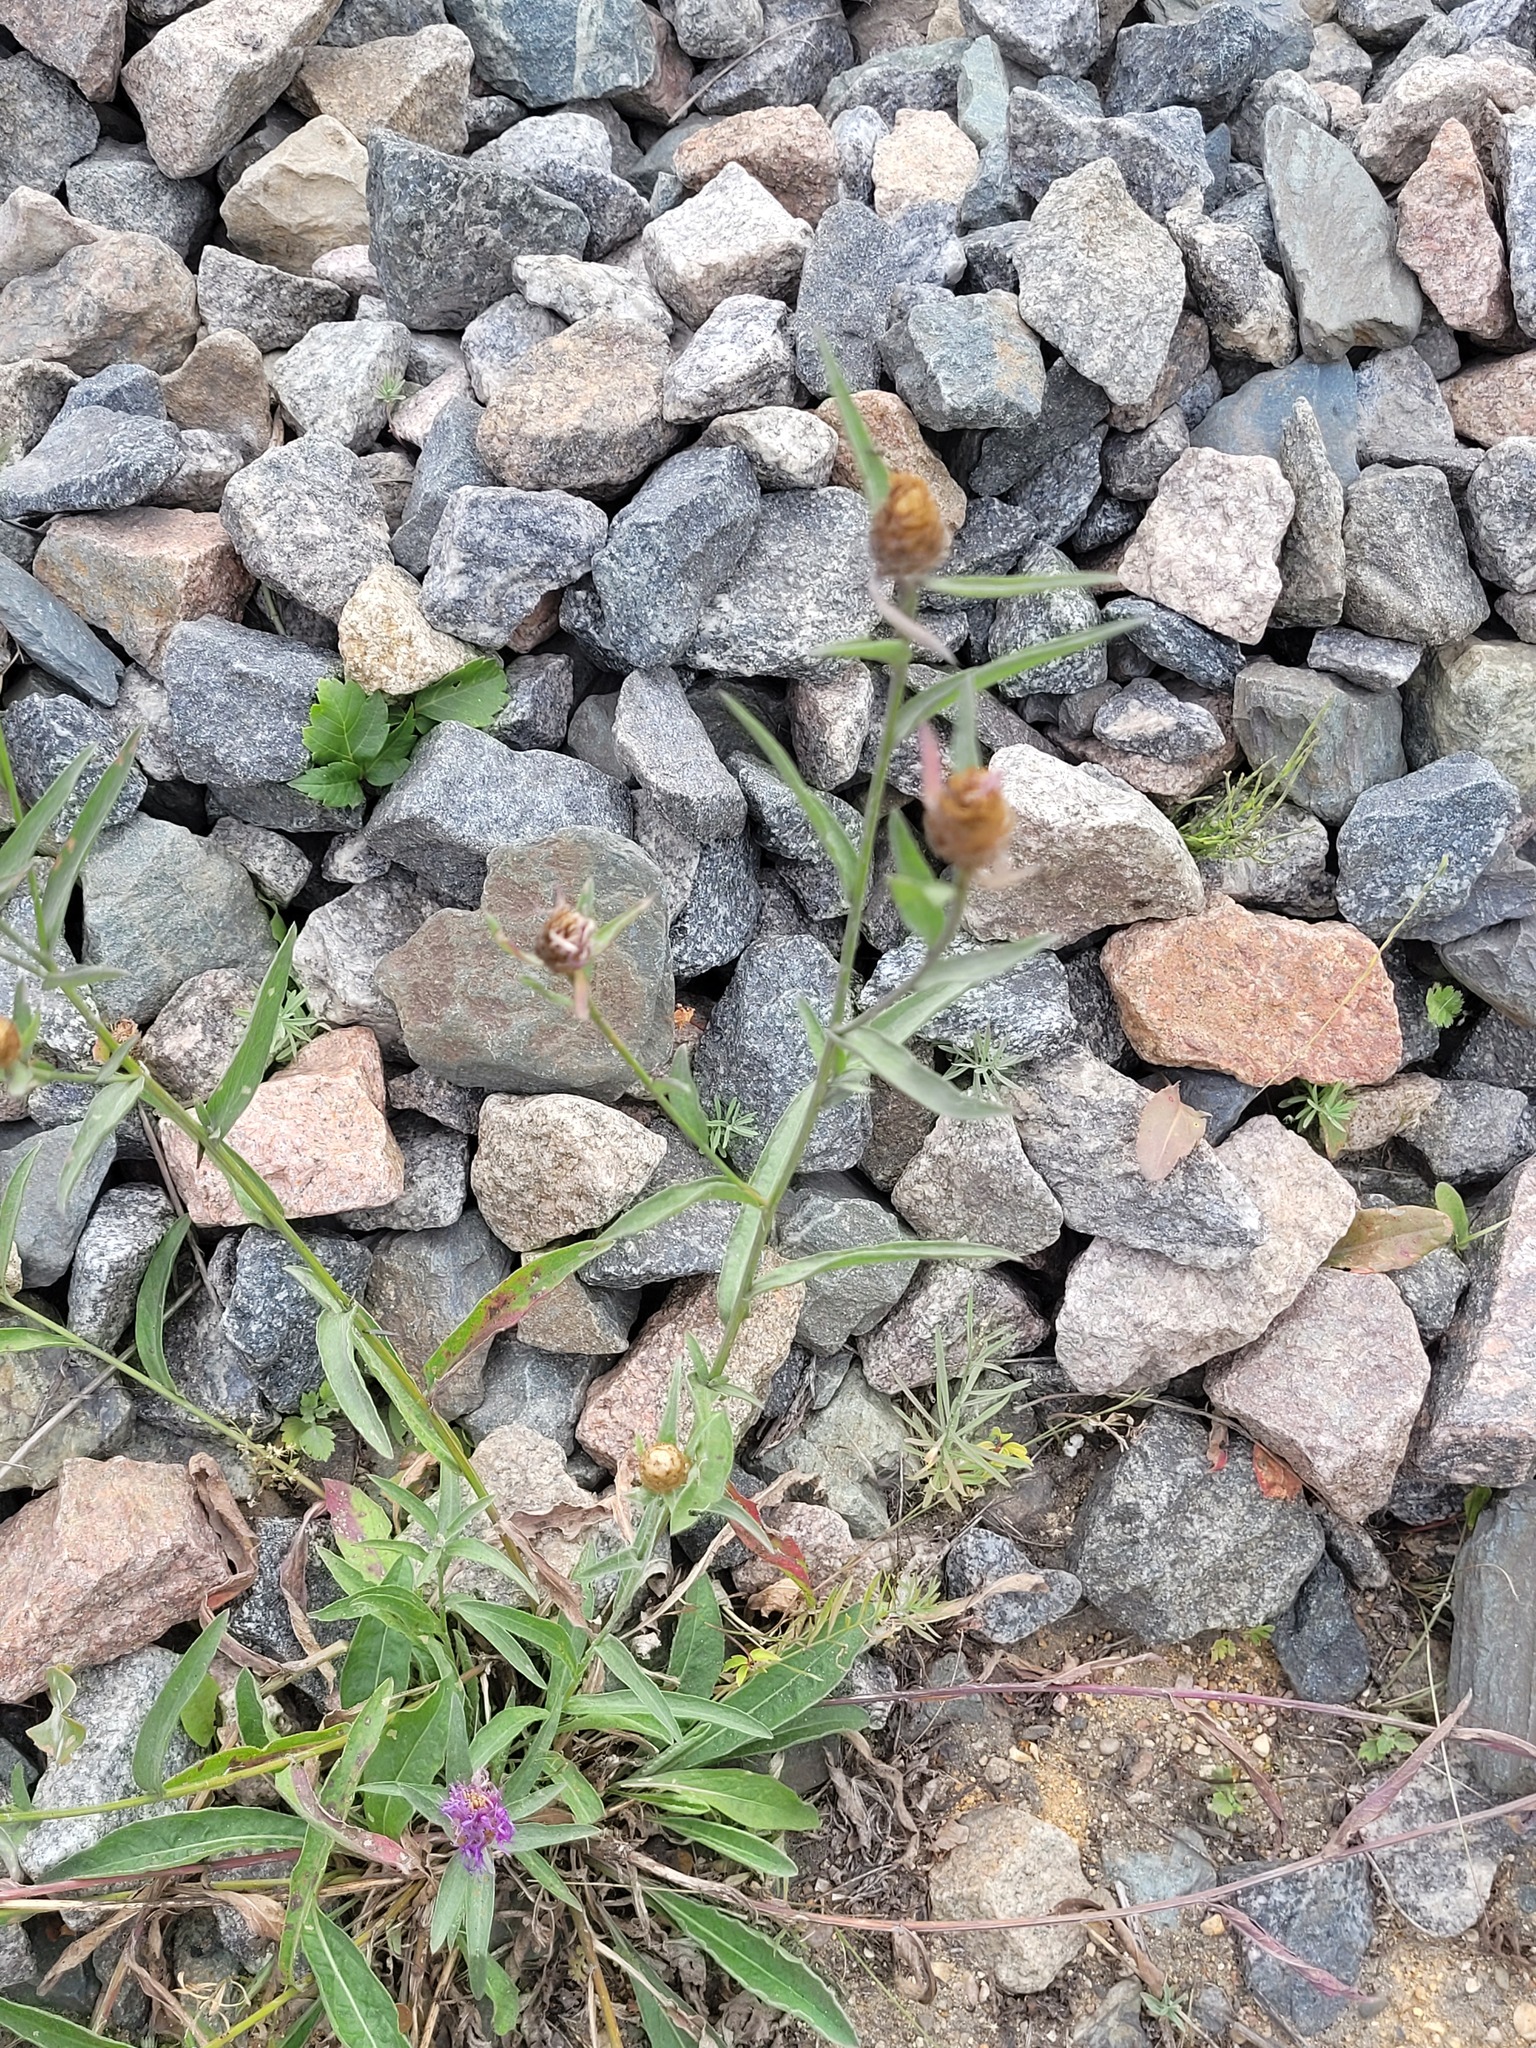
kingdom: Plantae
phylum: Tracheophyta
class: Magnoliopsida
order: Asterales
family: Asteraceae
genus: Centaurea
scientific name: Centaurea jacea
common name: Brown knapweed
